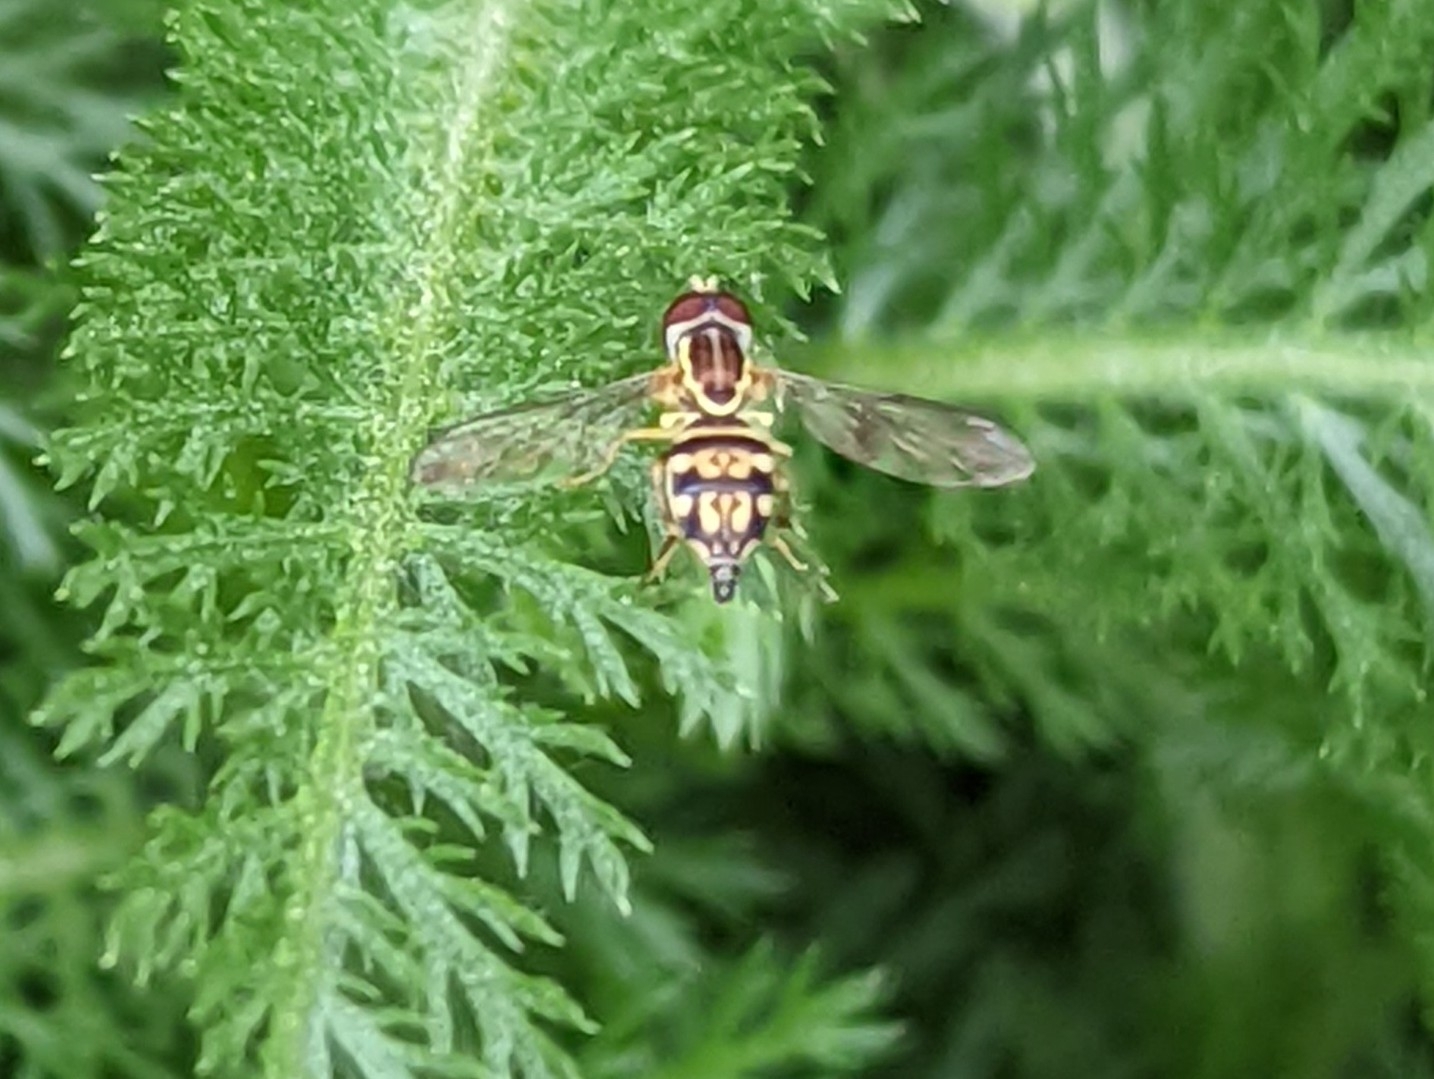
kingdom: Animalia
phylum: Arthropoda
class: Insecta
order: Diptera
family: Syrphidae
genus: Toxomerus
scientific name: Toxomerus geminatus
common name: Eastern calligrapher
